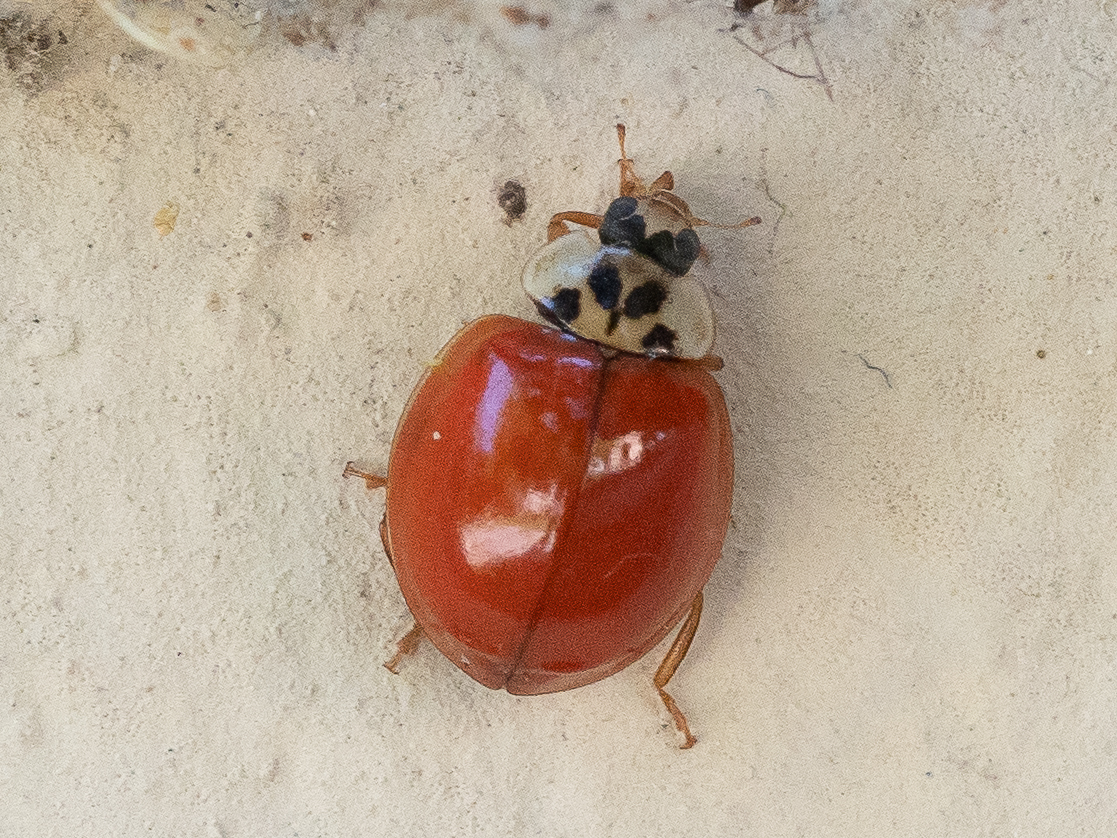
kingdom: Animalia
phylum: Arthropoda
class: Insecta
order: Coleoptera
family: Coccinellidae
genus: Harmonia
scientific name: Harmonia axyridis
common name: Harlequin ladybird
